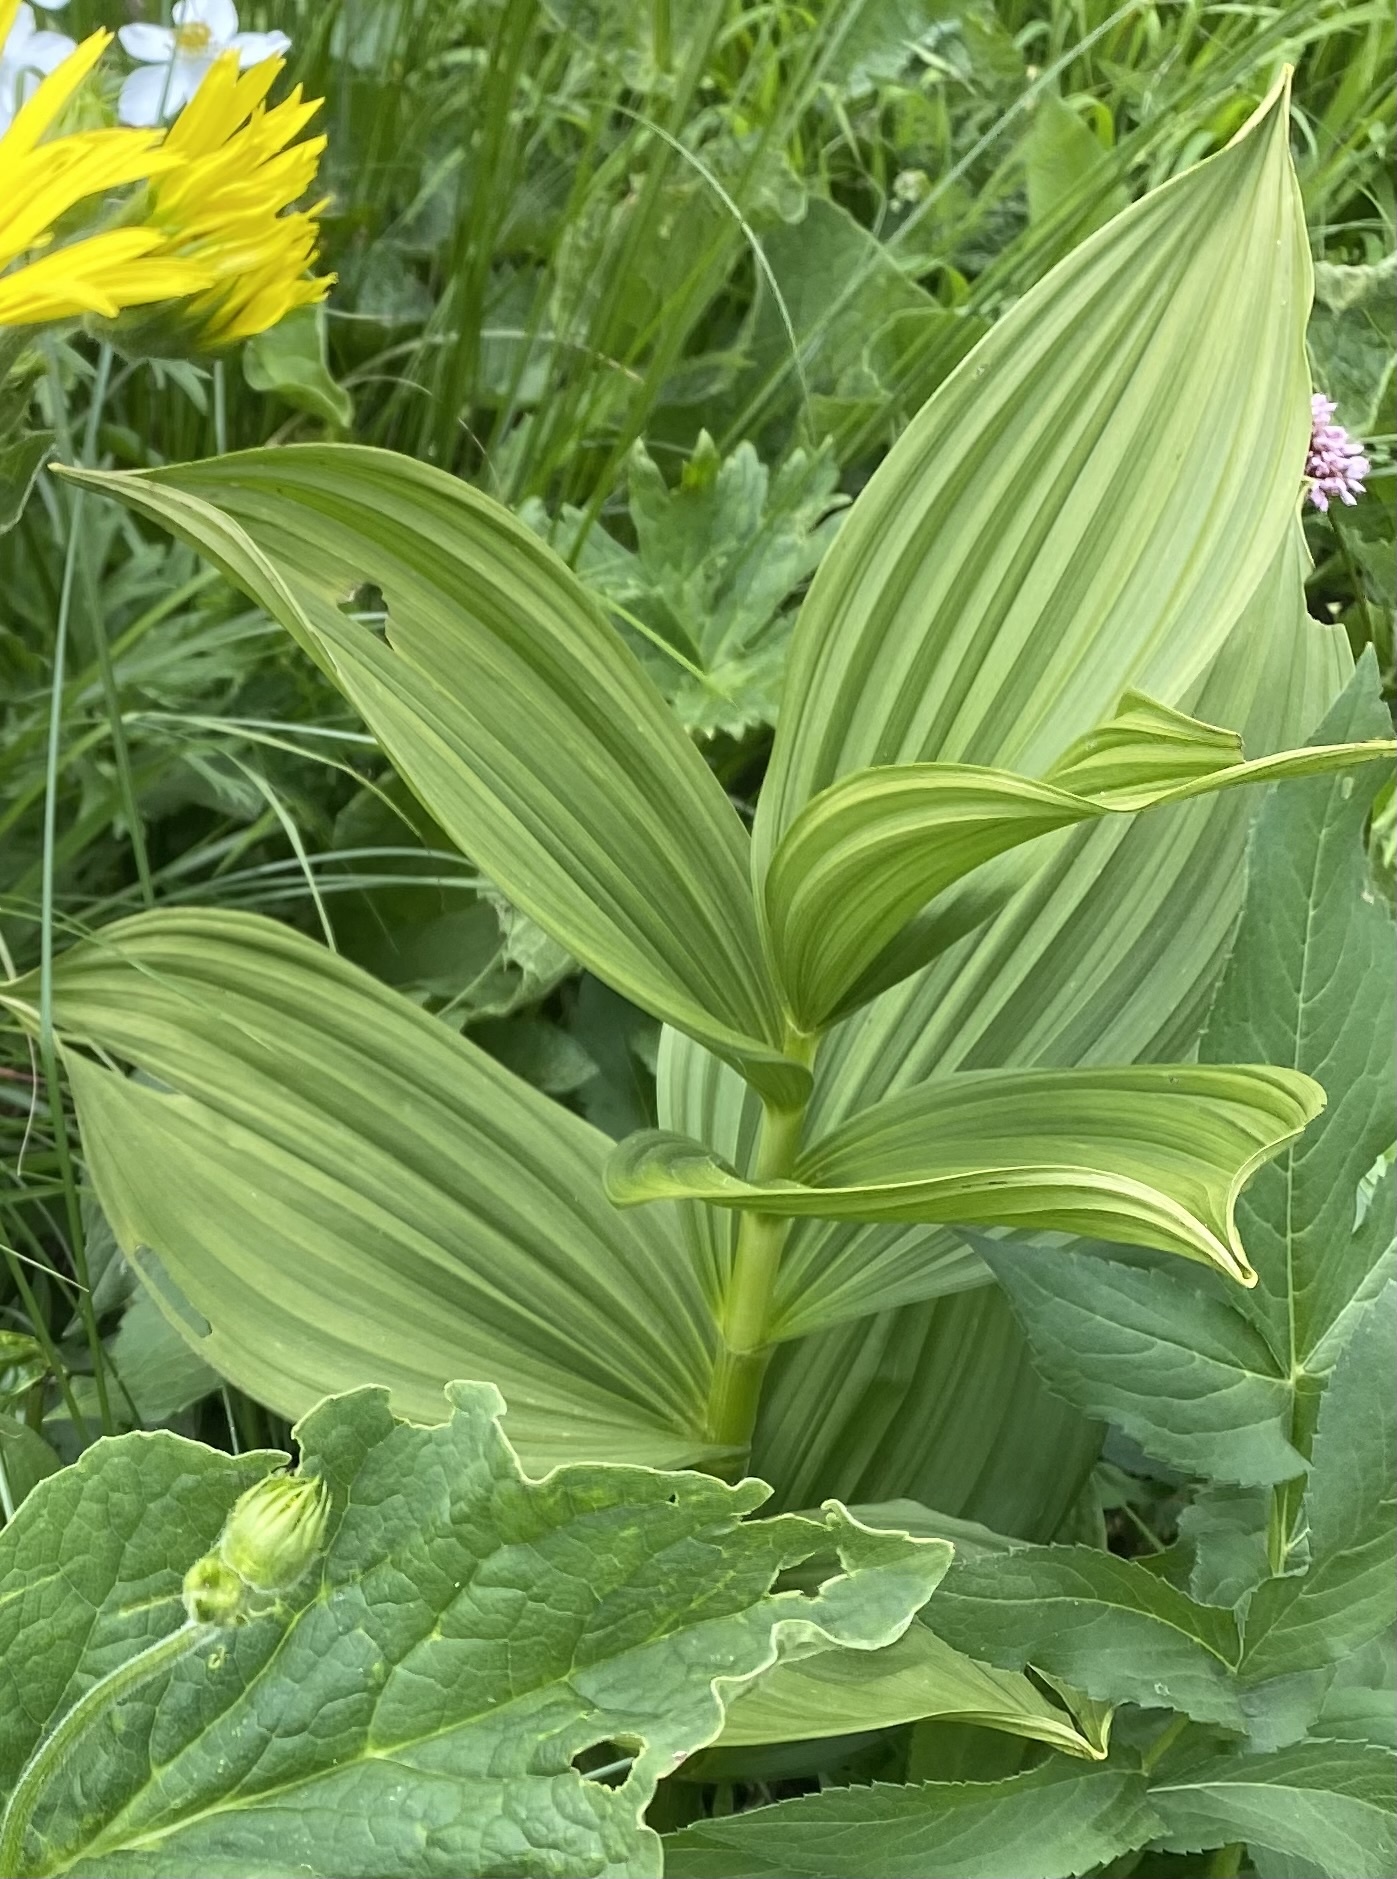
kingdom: Plantae
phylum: Tracheophyta
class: Liliopsida
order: Liliales
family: Melanthiaceae
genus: Veratrum
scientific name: Veratrum lobelianum
